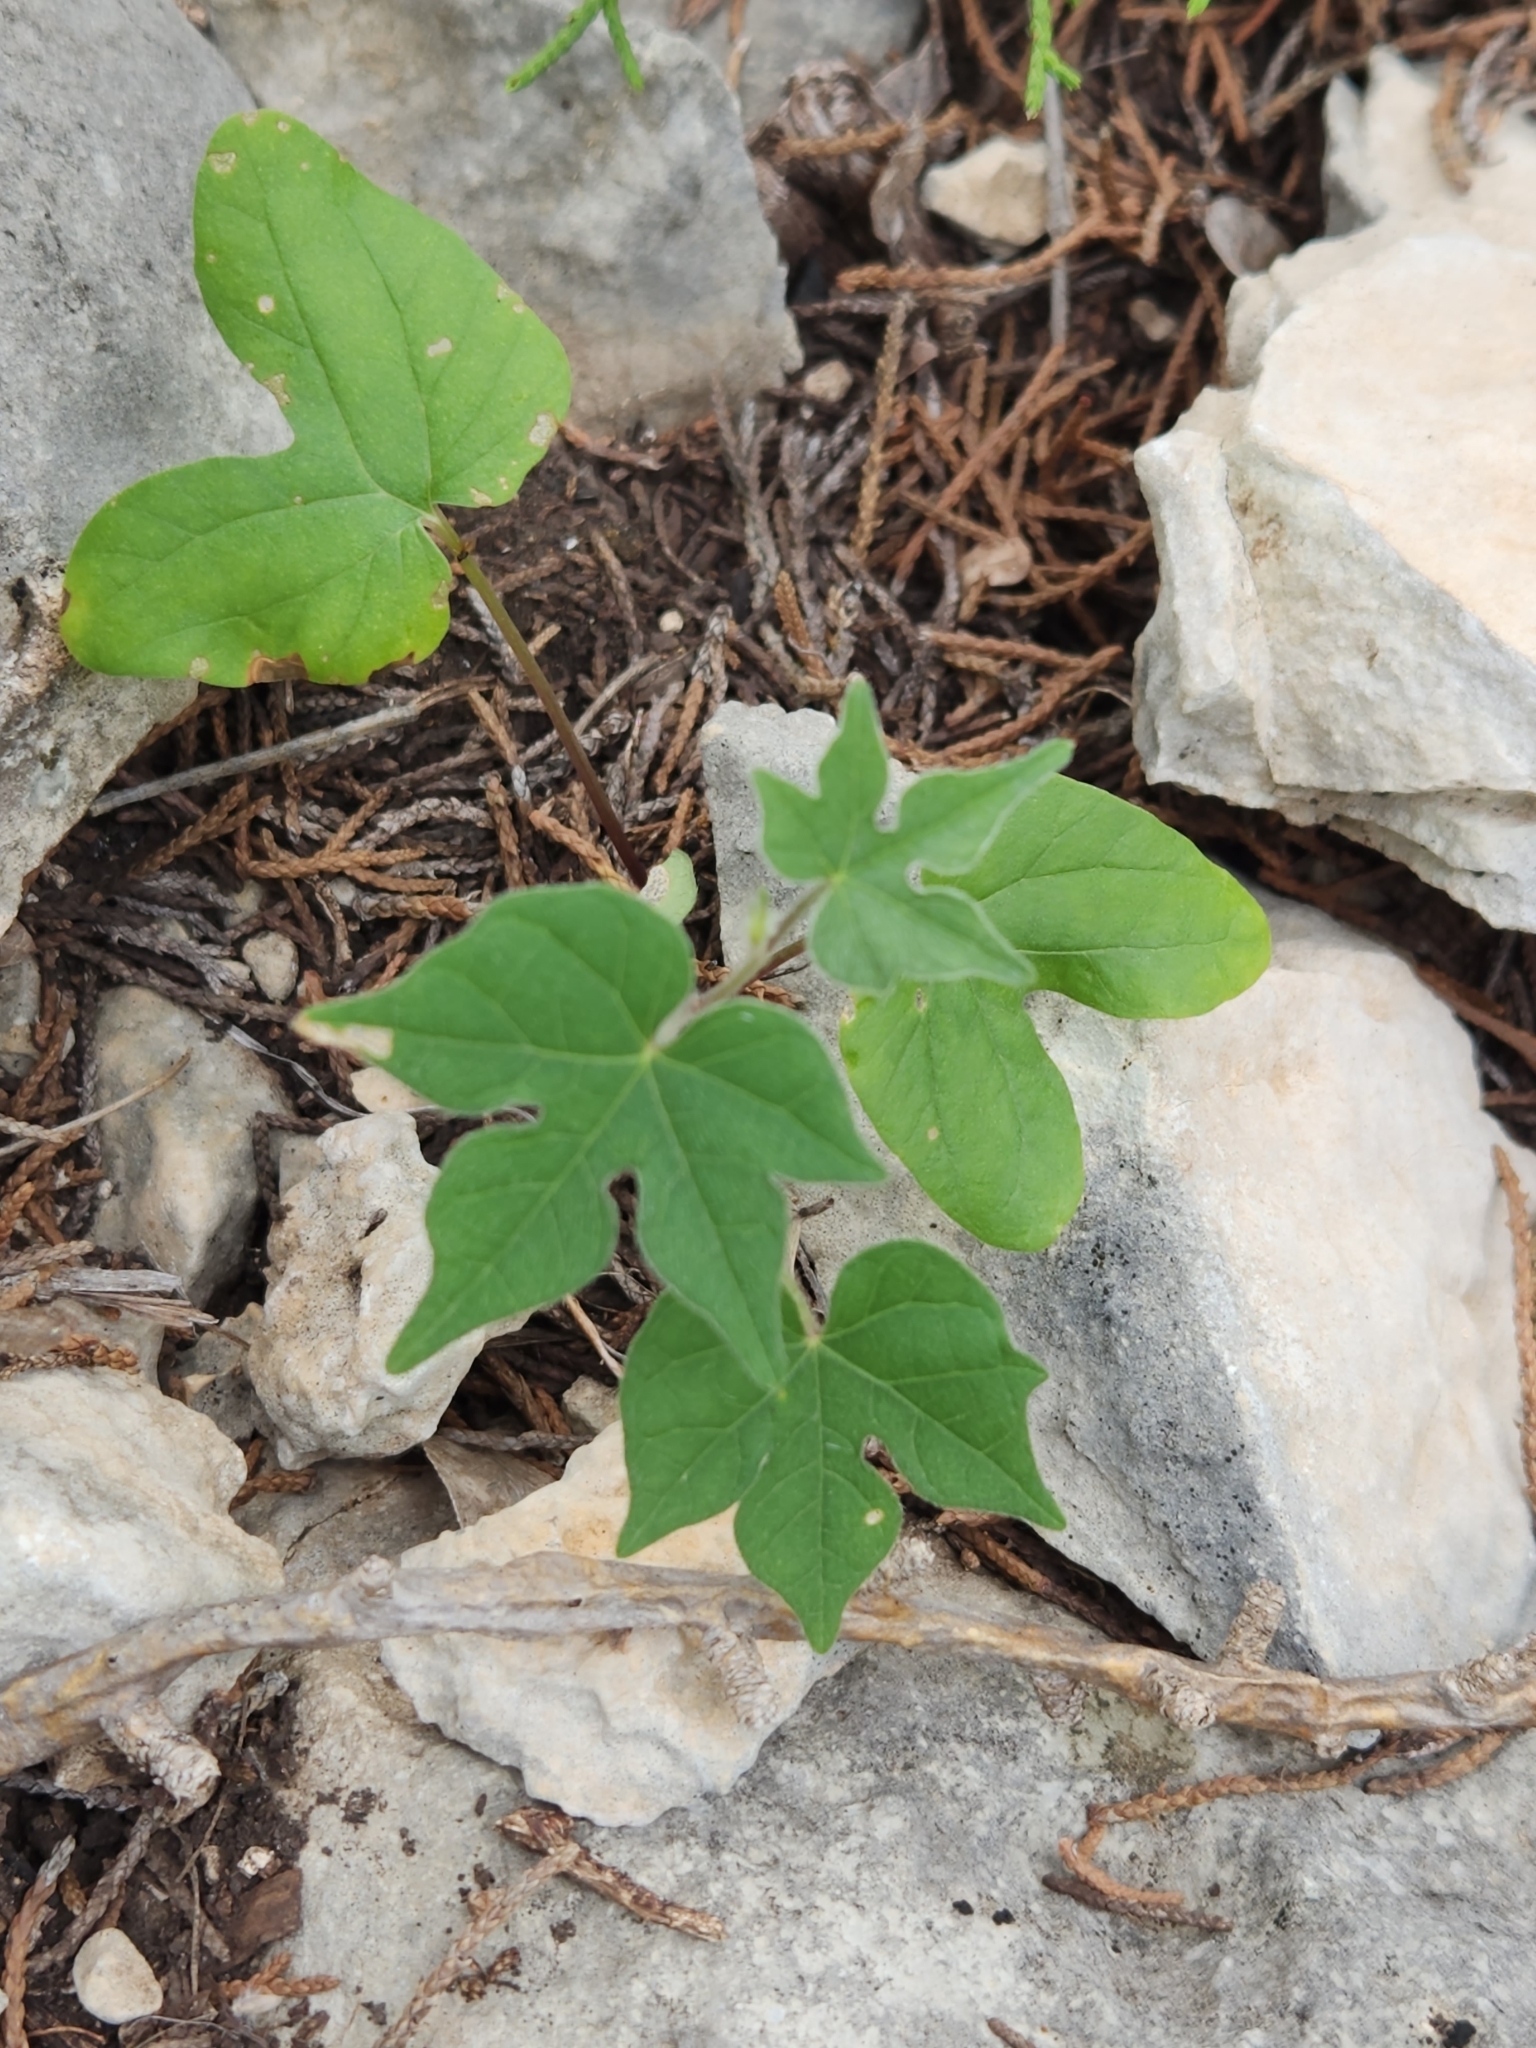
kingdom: Plantae
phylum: Tracheophyta
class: Magnoliopsida
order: Solanales
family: Convolvulaceae
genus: Ipomoea
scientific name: Ipomoea lindheimeri
